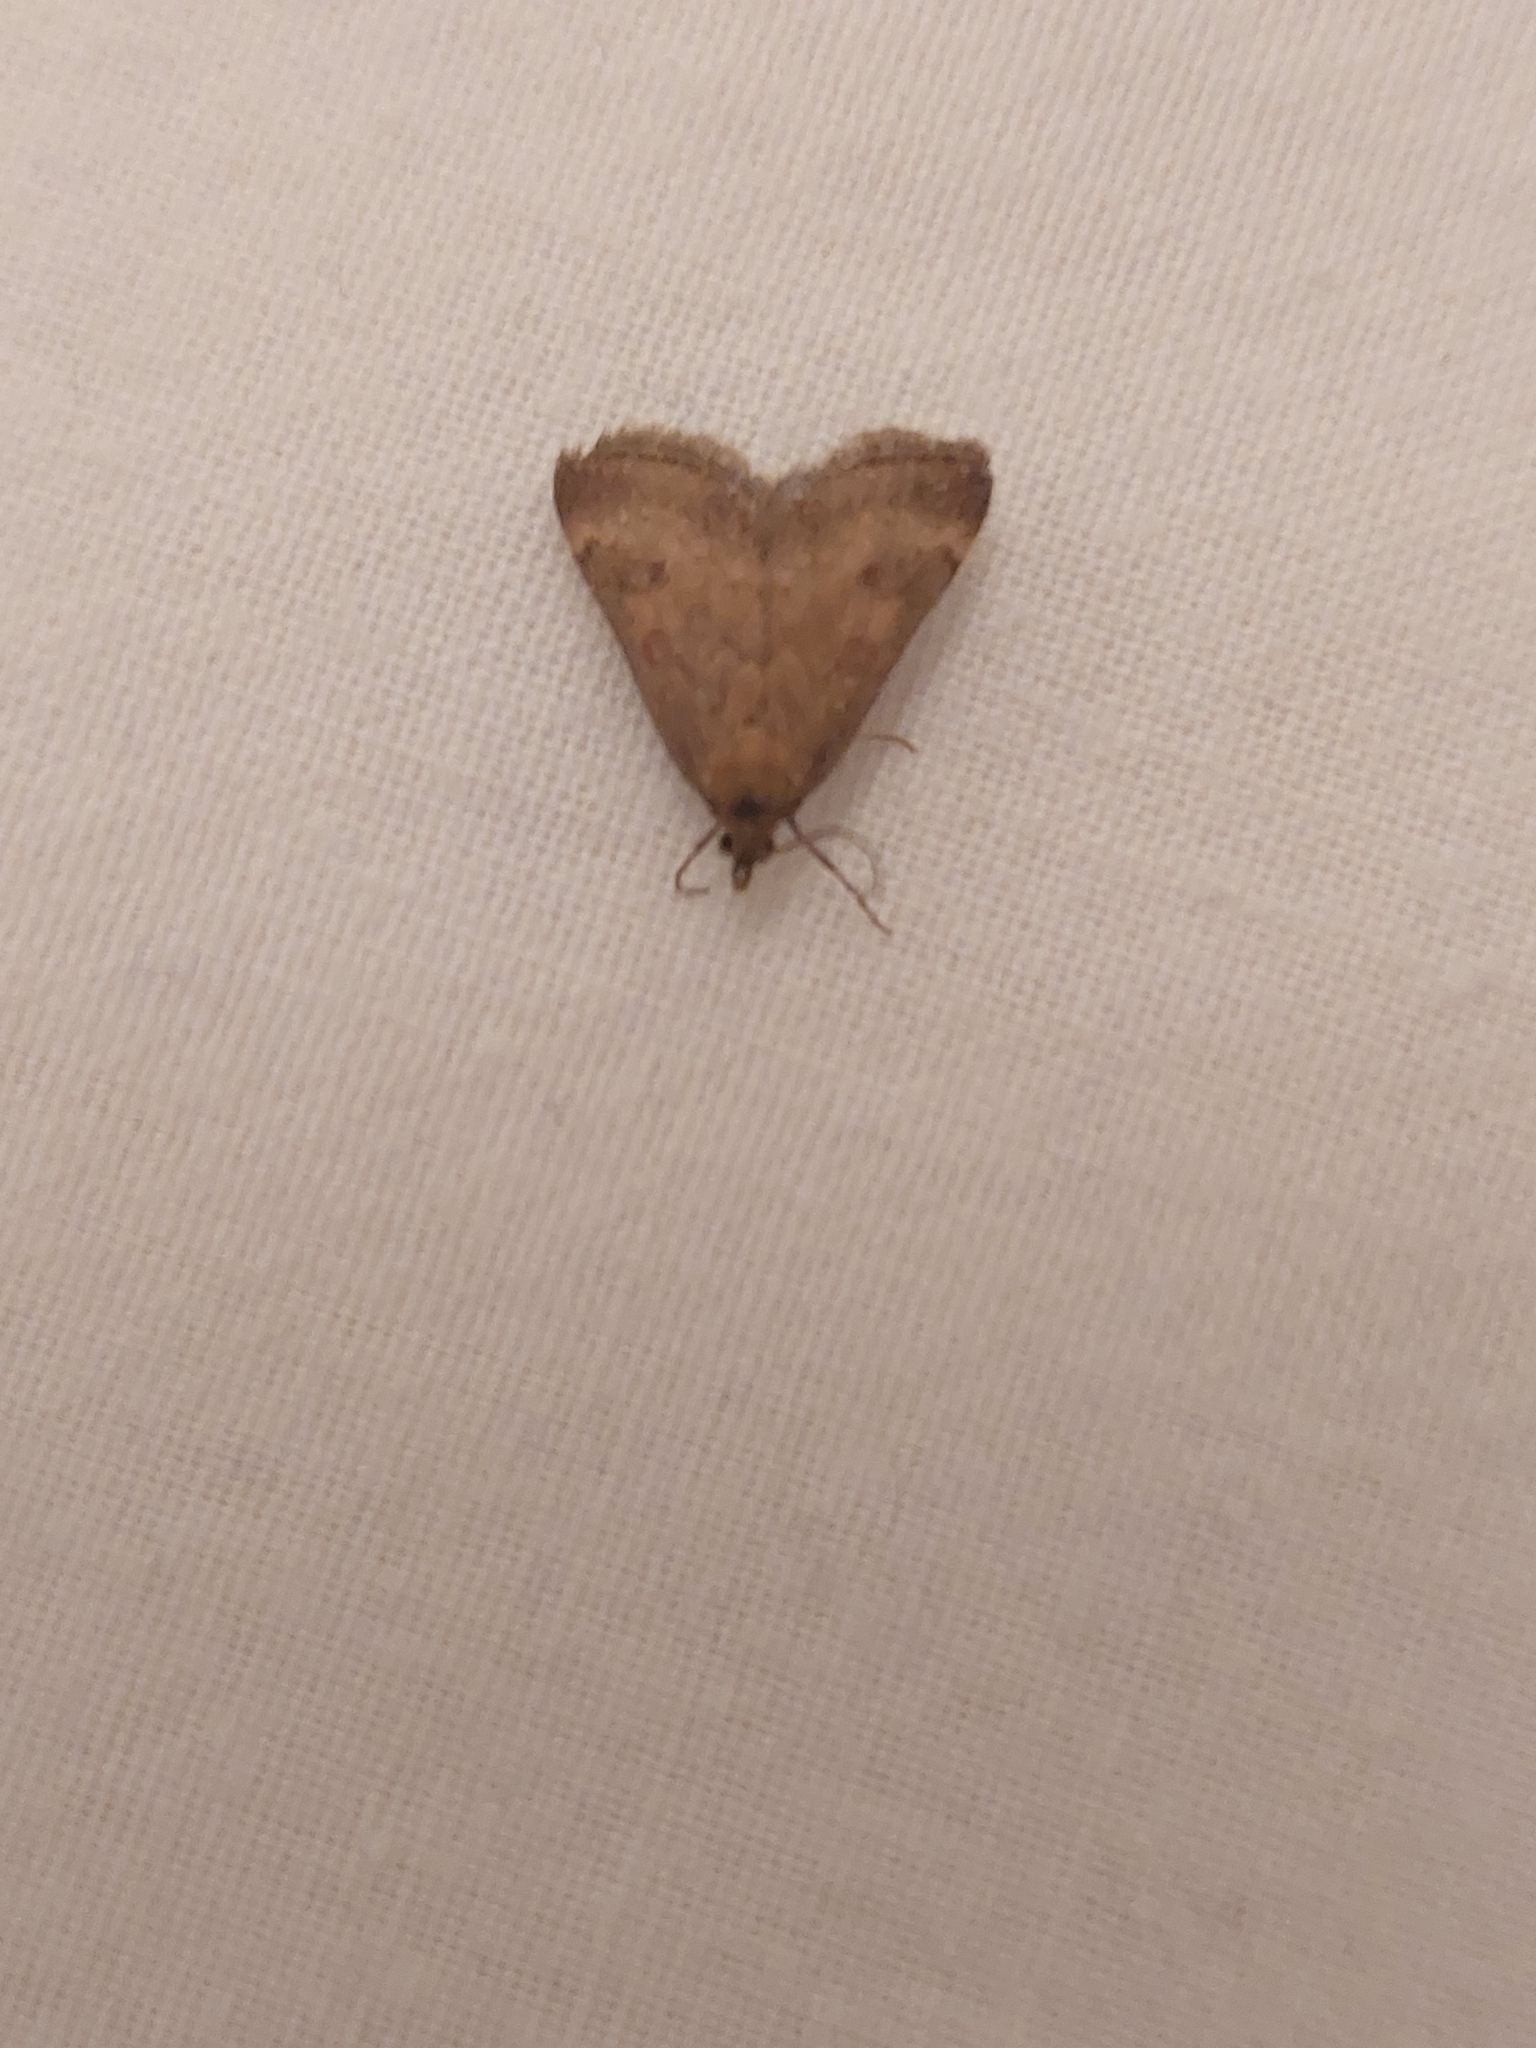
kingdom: Animalia
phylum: Arthropoda
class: Insecta
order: Lepidoptera
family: Crambidae
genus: Pyrausta
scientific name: Pyrausta despicata
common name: Straw-barred pearl
